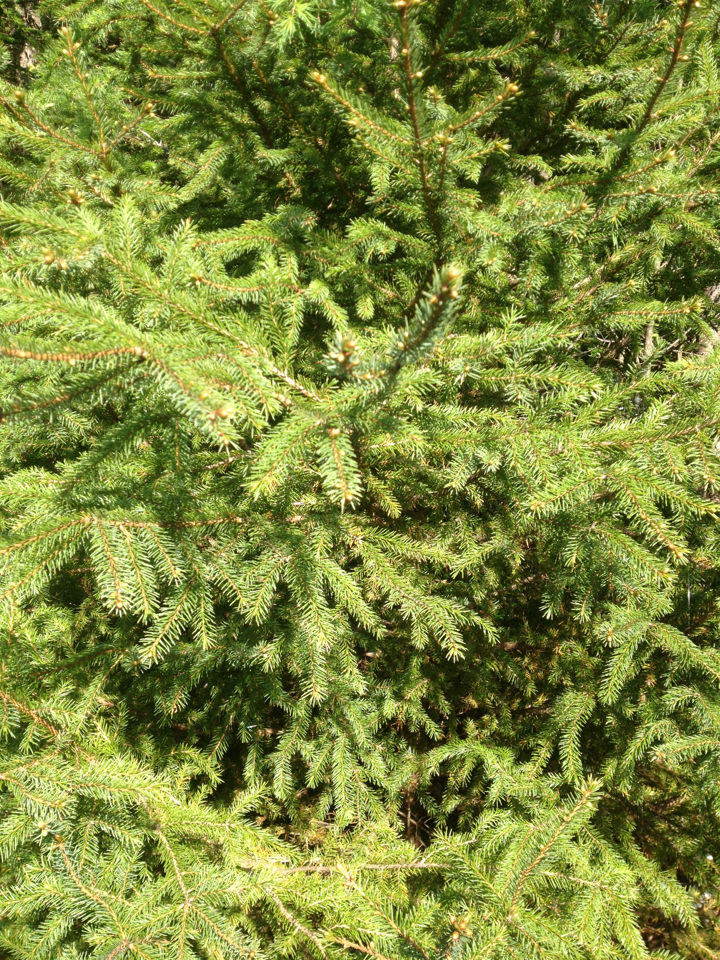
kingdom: Plantae
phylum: Tracheophyta
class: Pinopsida
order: Pinales
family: Pinaceae
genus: Picea
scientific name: Picea rubens
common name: Red spruce
